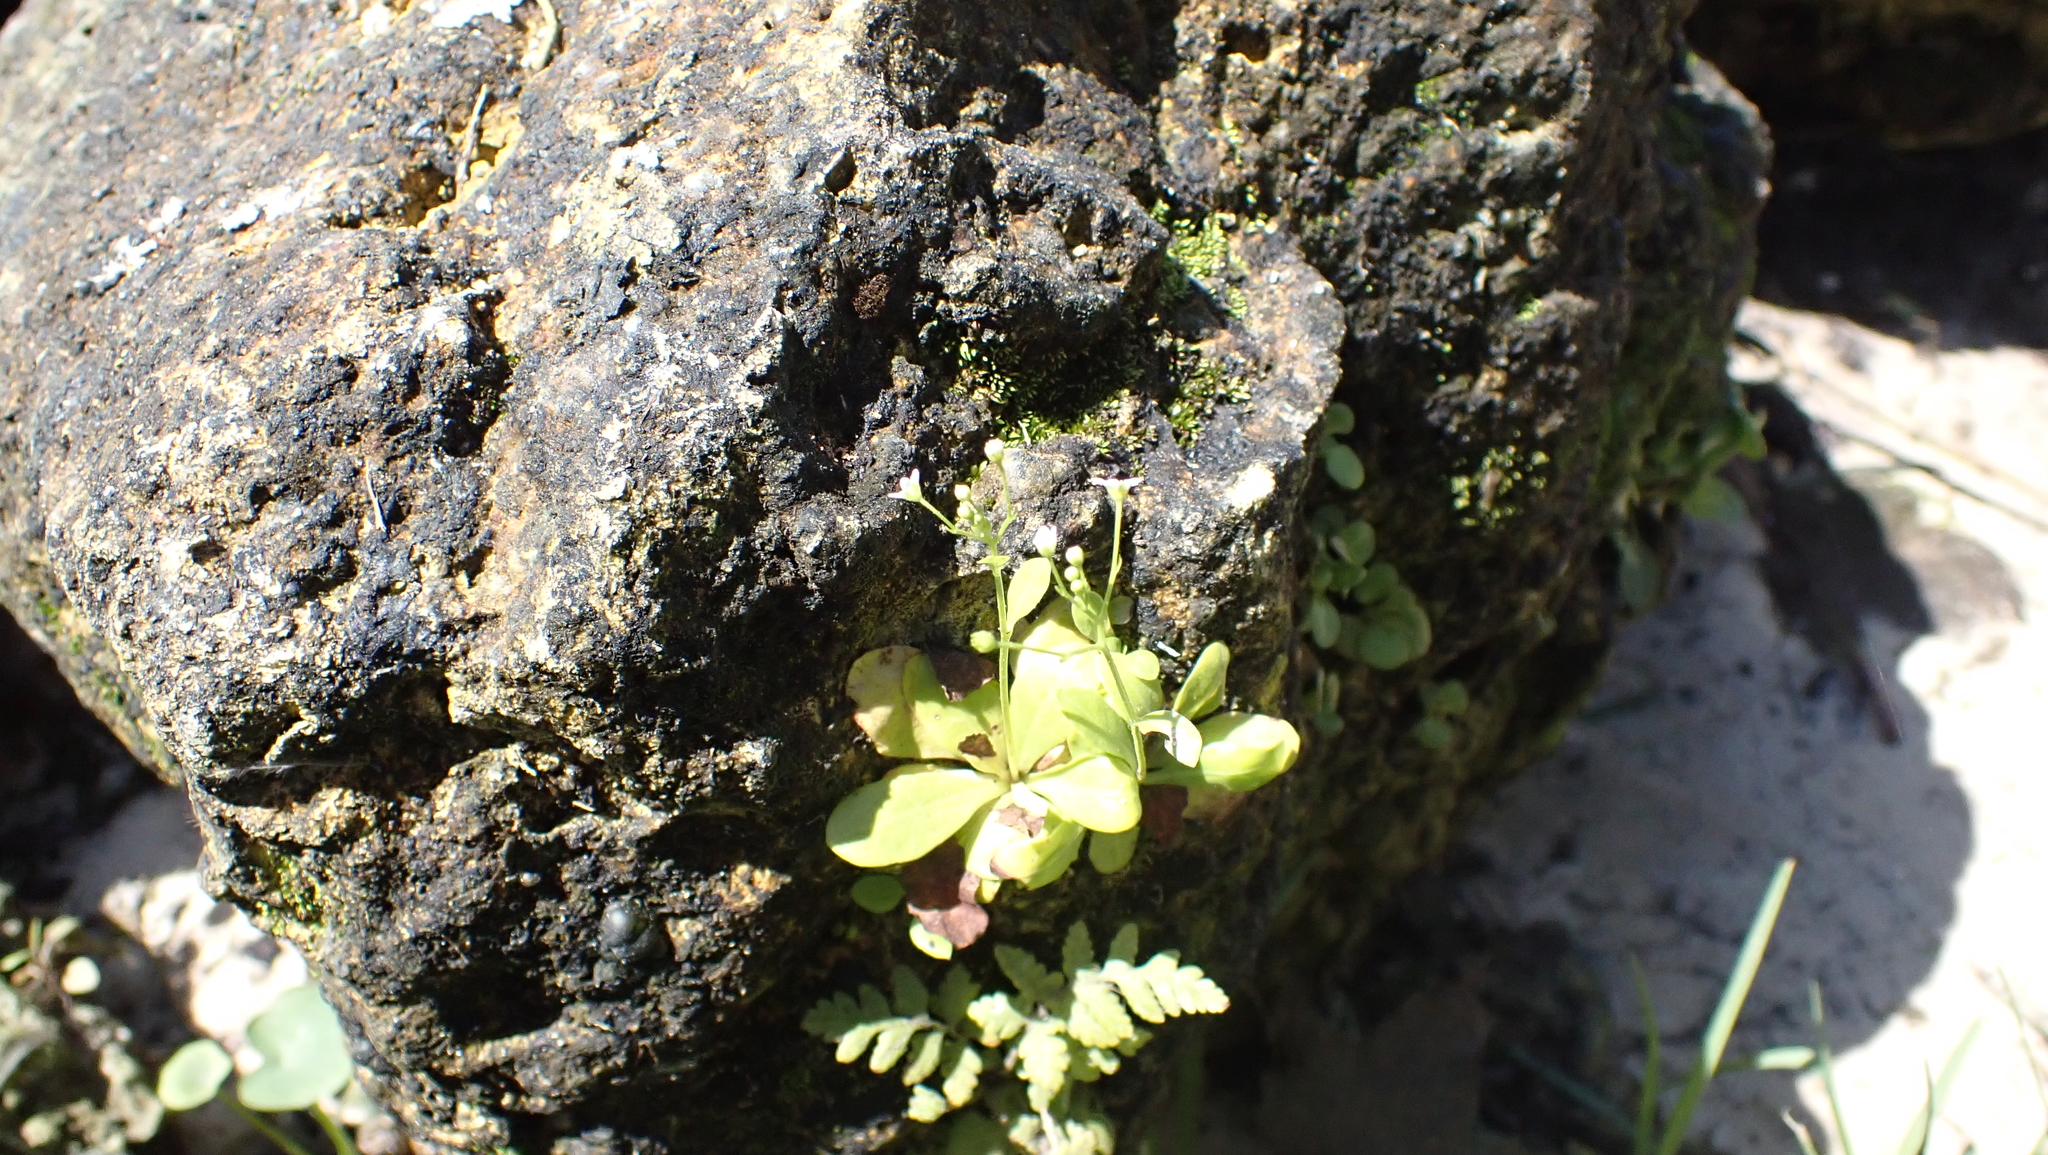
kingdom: Plantae
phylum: Tracheophyta
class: Magnoliopsida
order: Ericales
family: Primulaceae
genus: Samolus
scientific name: Samolus parviflorus
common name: False water pimpernel
